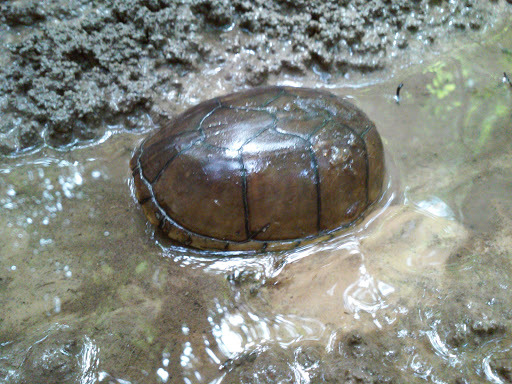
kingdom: Animalia
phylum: Chordata
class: Testudines
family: Kinosternidae
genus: Kinosternon
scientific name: Kinosternon subrubrum
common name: Eastern mud turtle
